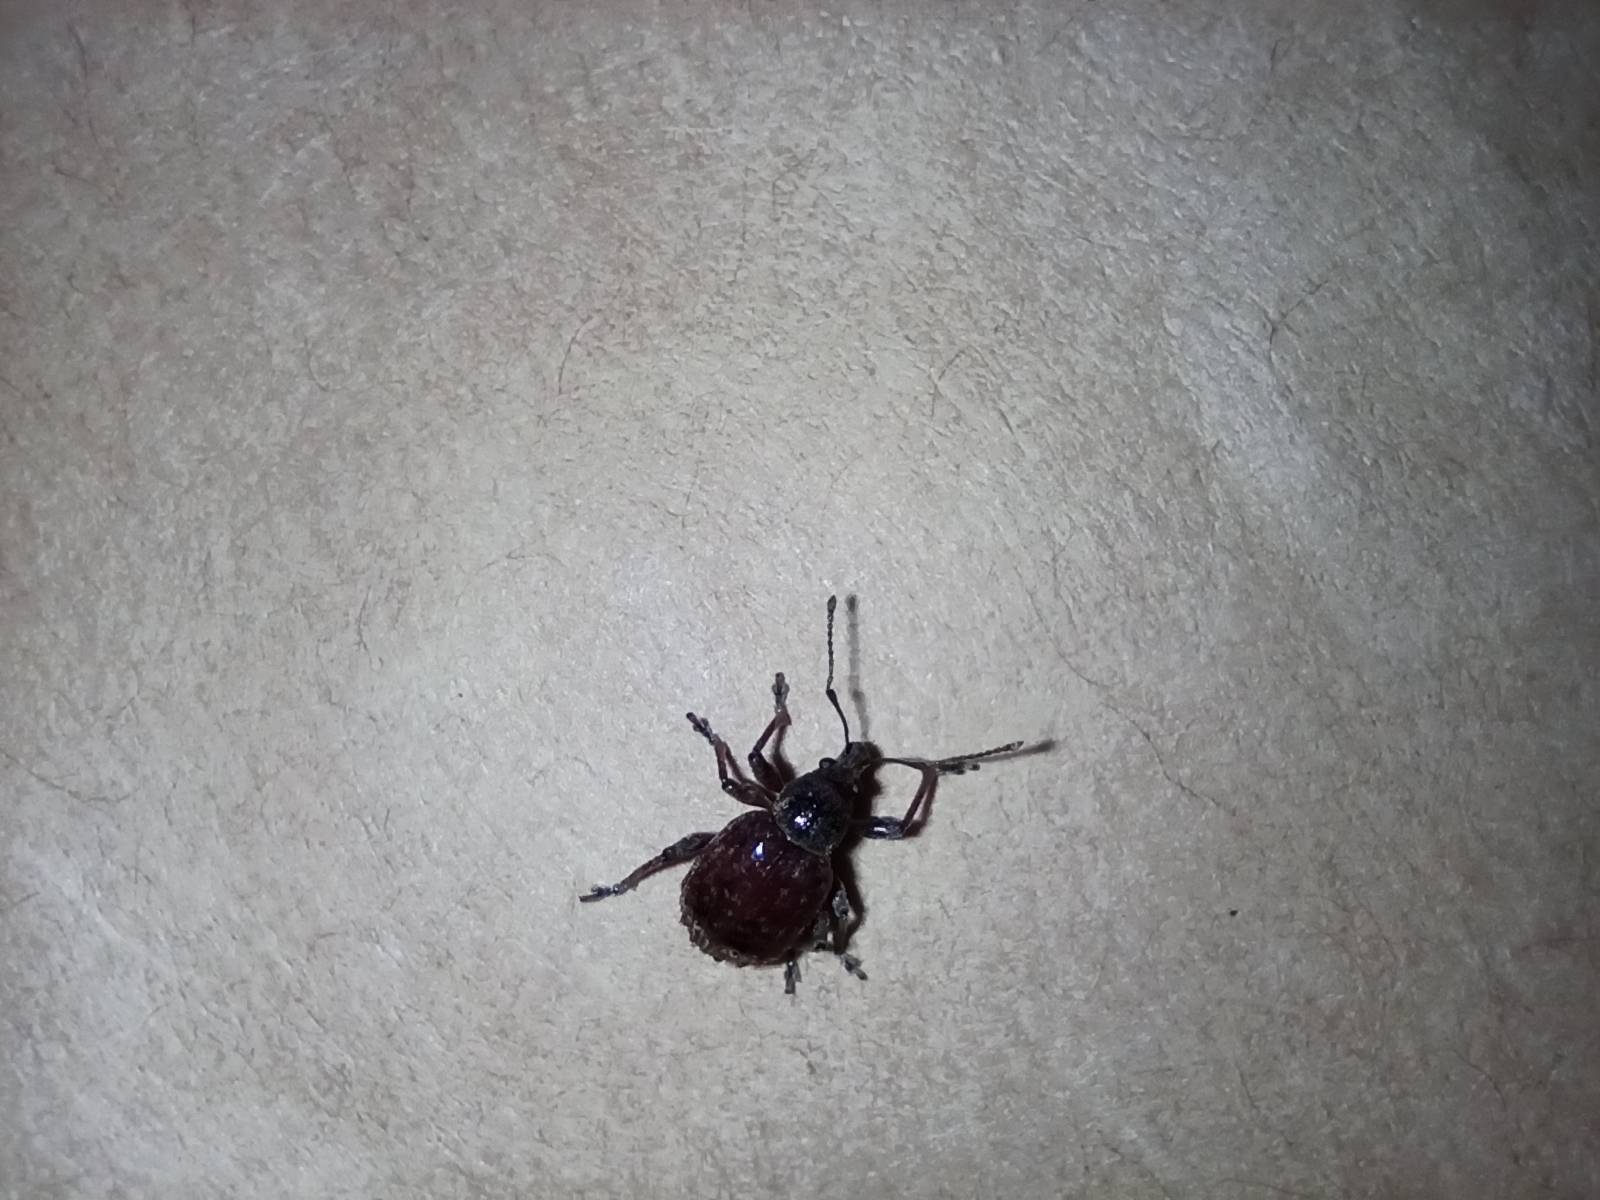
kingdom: Animalia
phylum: Arthropoda
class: Insecta
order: Coleoptera
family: Curculionidae
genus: Phlyctinus
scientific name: Phlyctinus callosus
